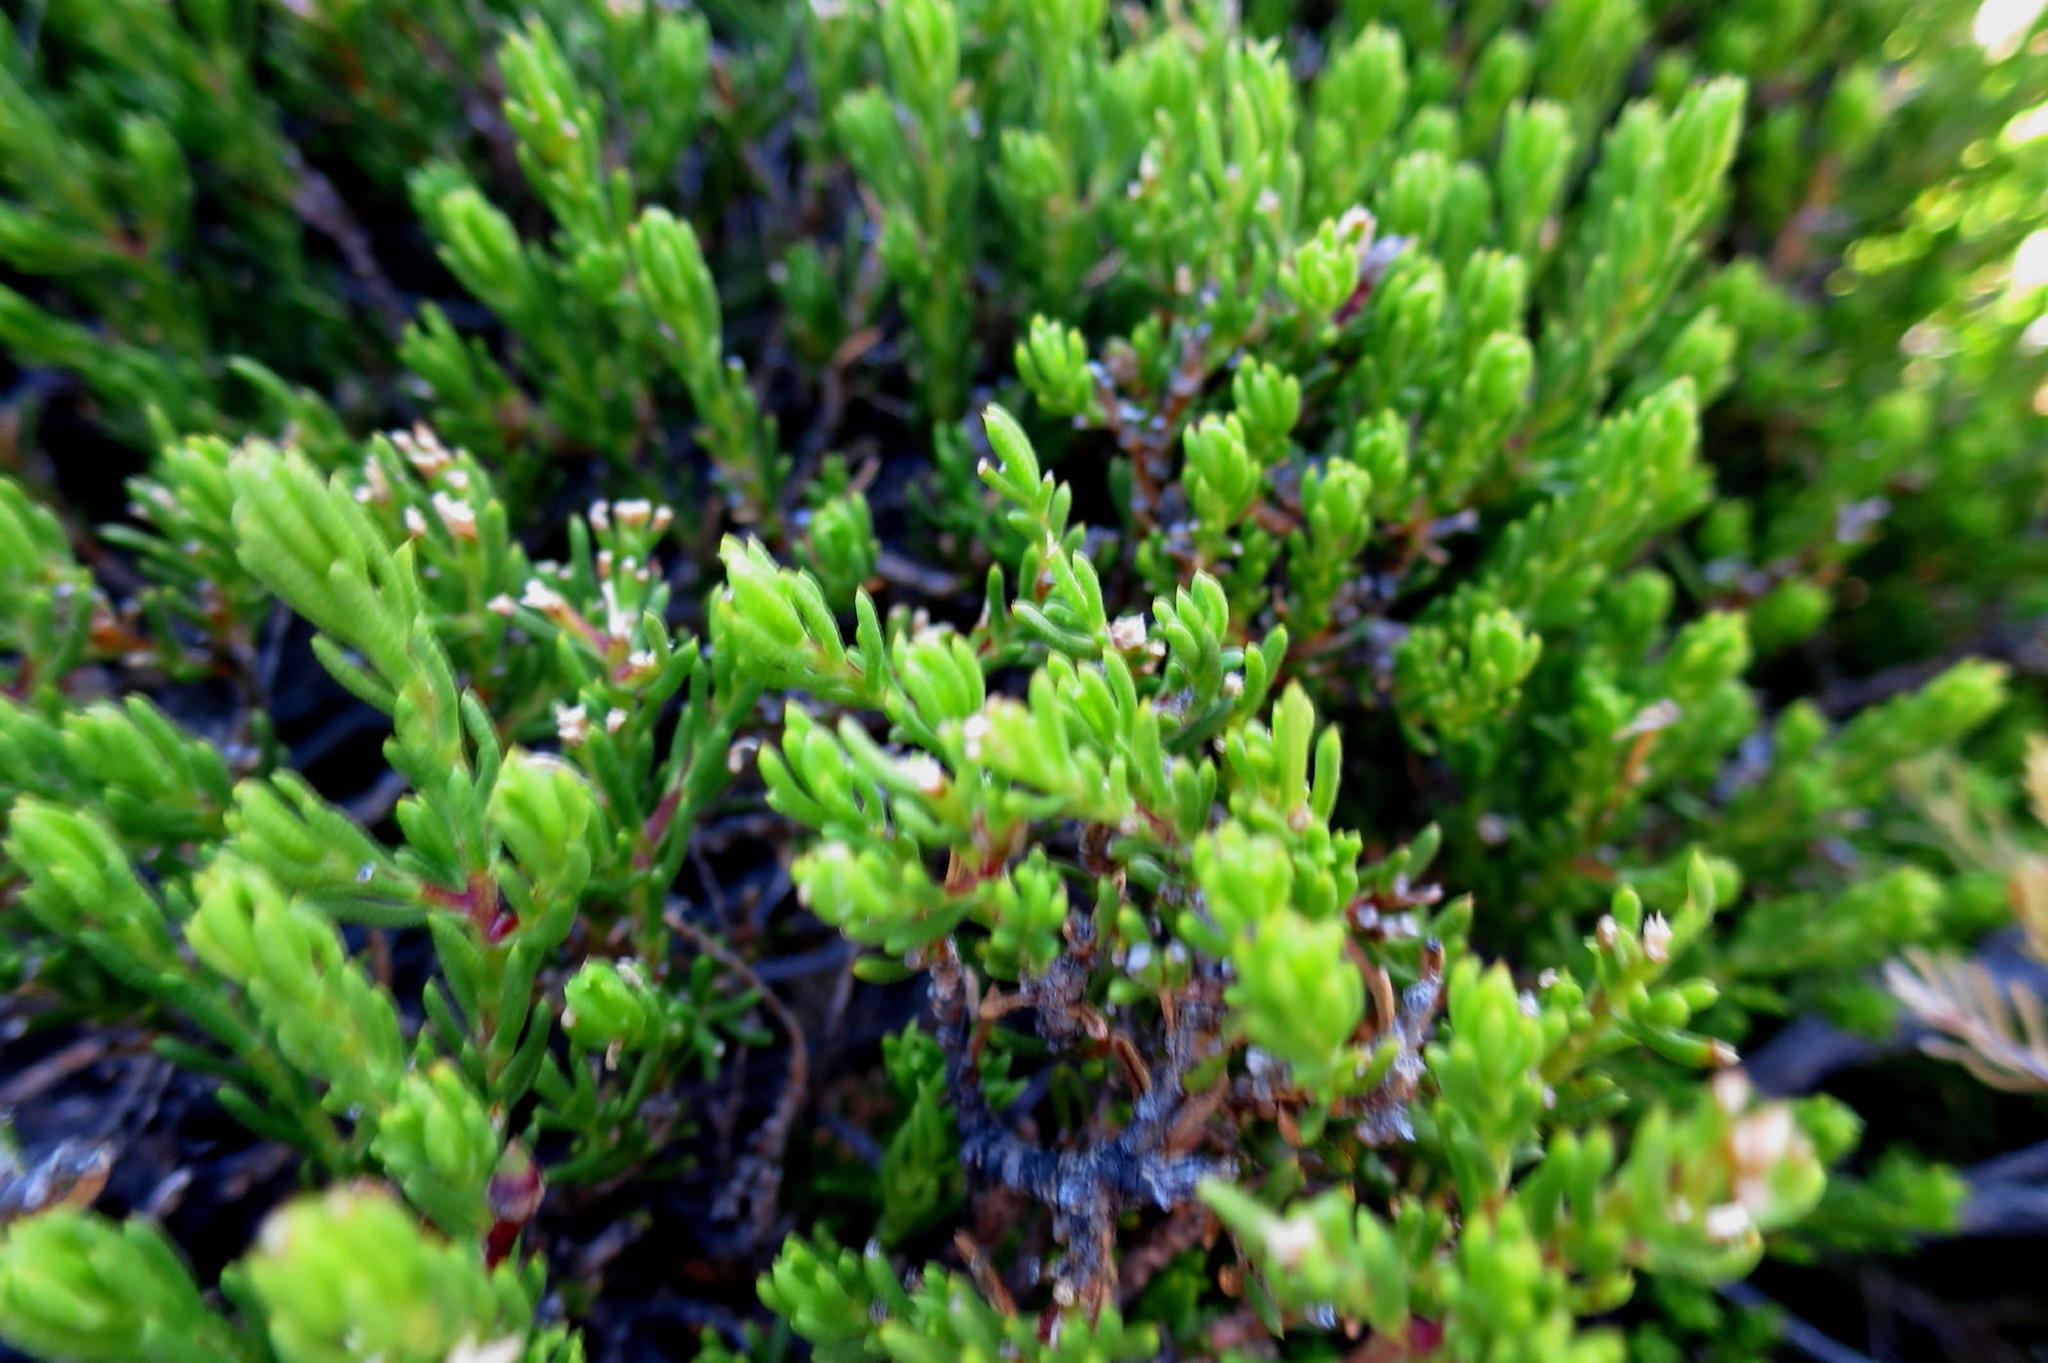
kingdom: Plantae
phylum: Tracheophyta
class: Magnoliopsida
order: Asterales
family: Asteraceae
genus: Felicia
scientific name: Felicia oleosa
